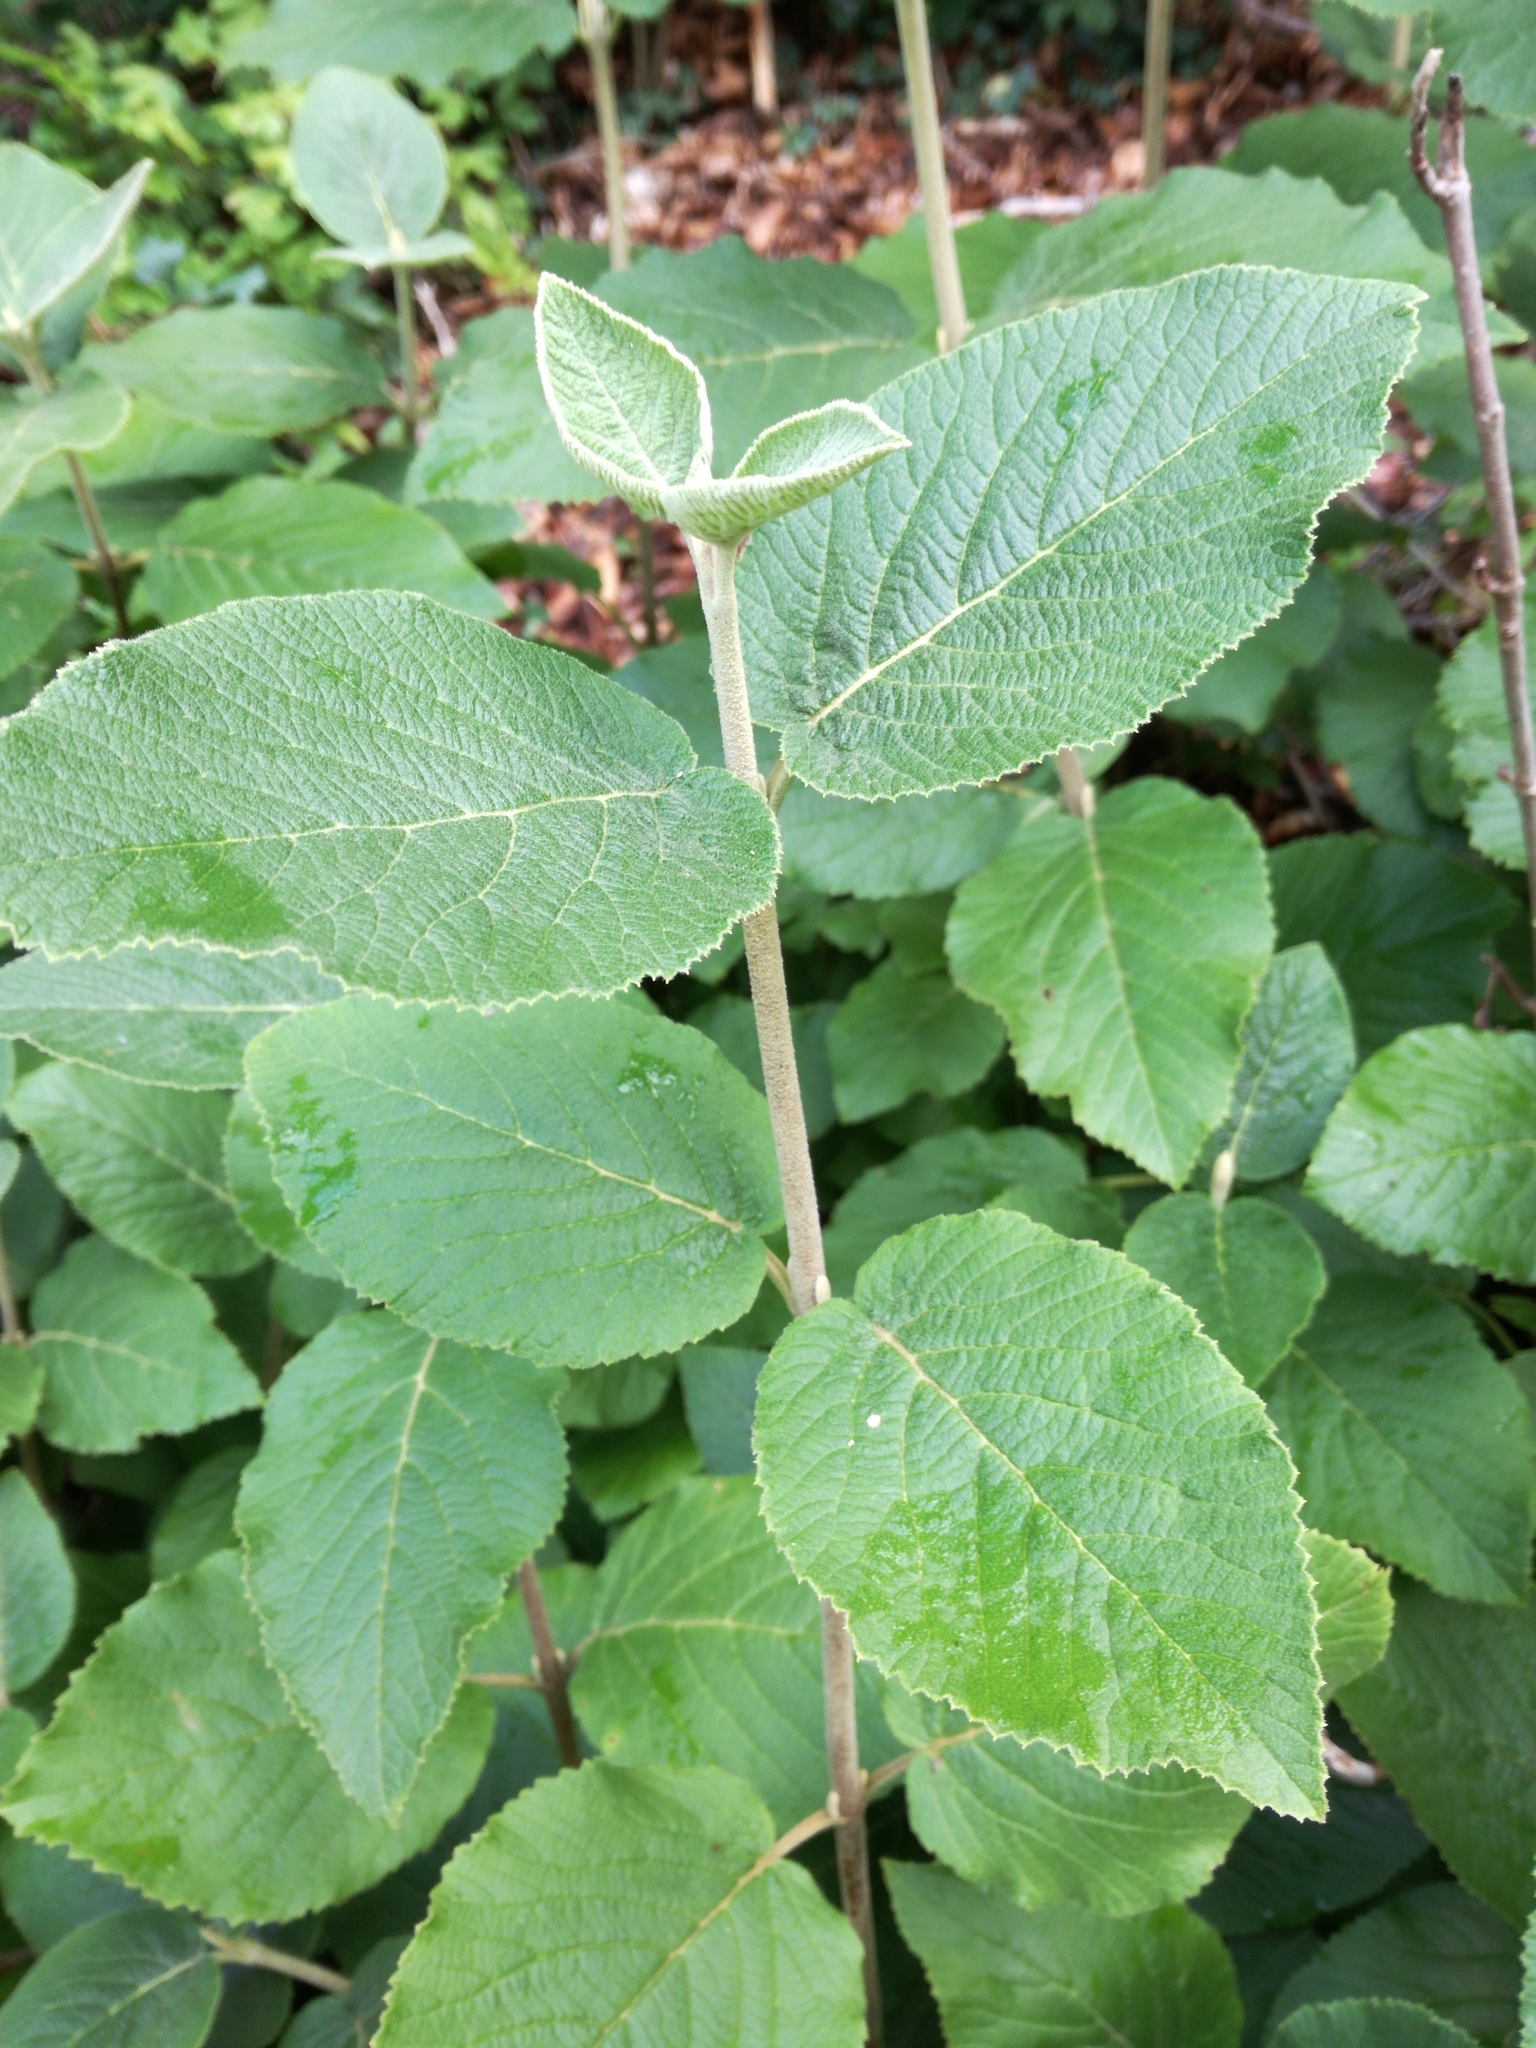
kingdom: Plantae
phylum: Tracheophyta
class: Magnoliopsida
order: Dipsacales
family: Viburnaceae
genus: Viburnum
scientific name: Viburnum lantana
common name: Wayfaring tree
